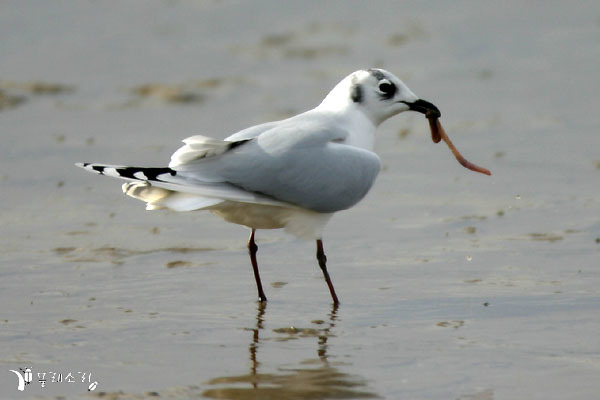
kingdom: Animalia
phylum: Chordata
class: Aves
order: Charadriiformes
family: Laridae
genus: Chroicocephalus
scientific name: Chroicocephalus saundersi
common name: Saunders's gull
